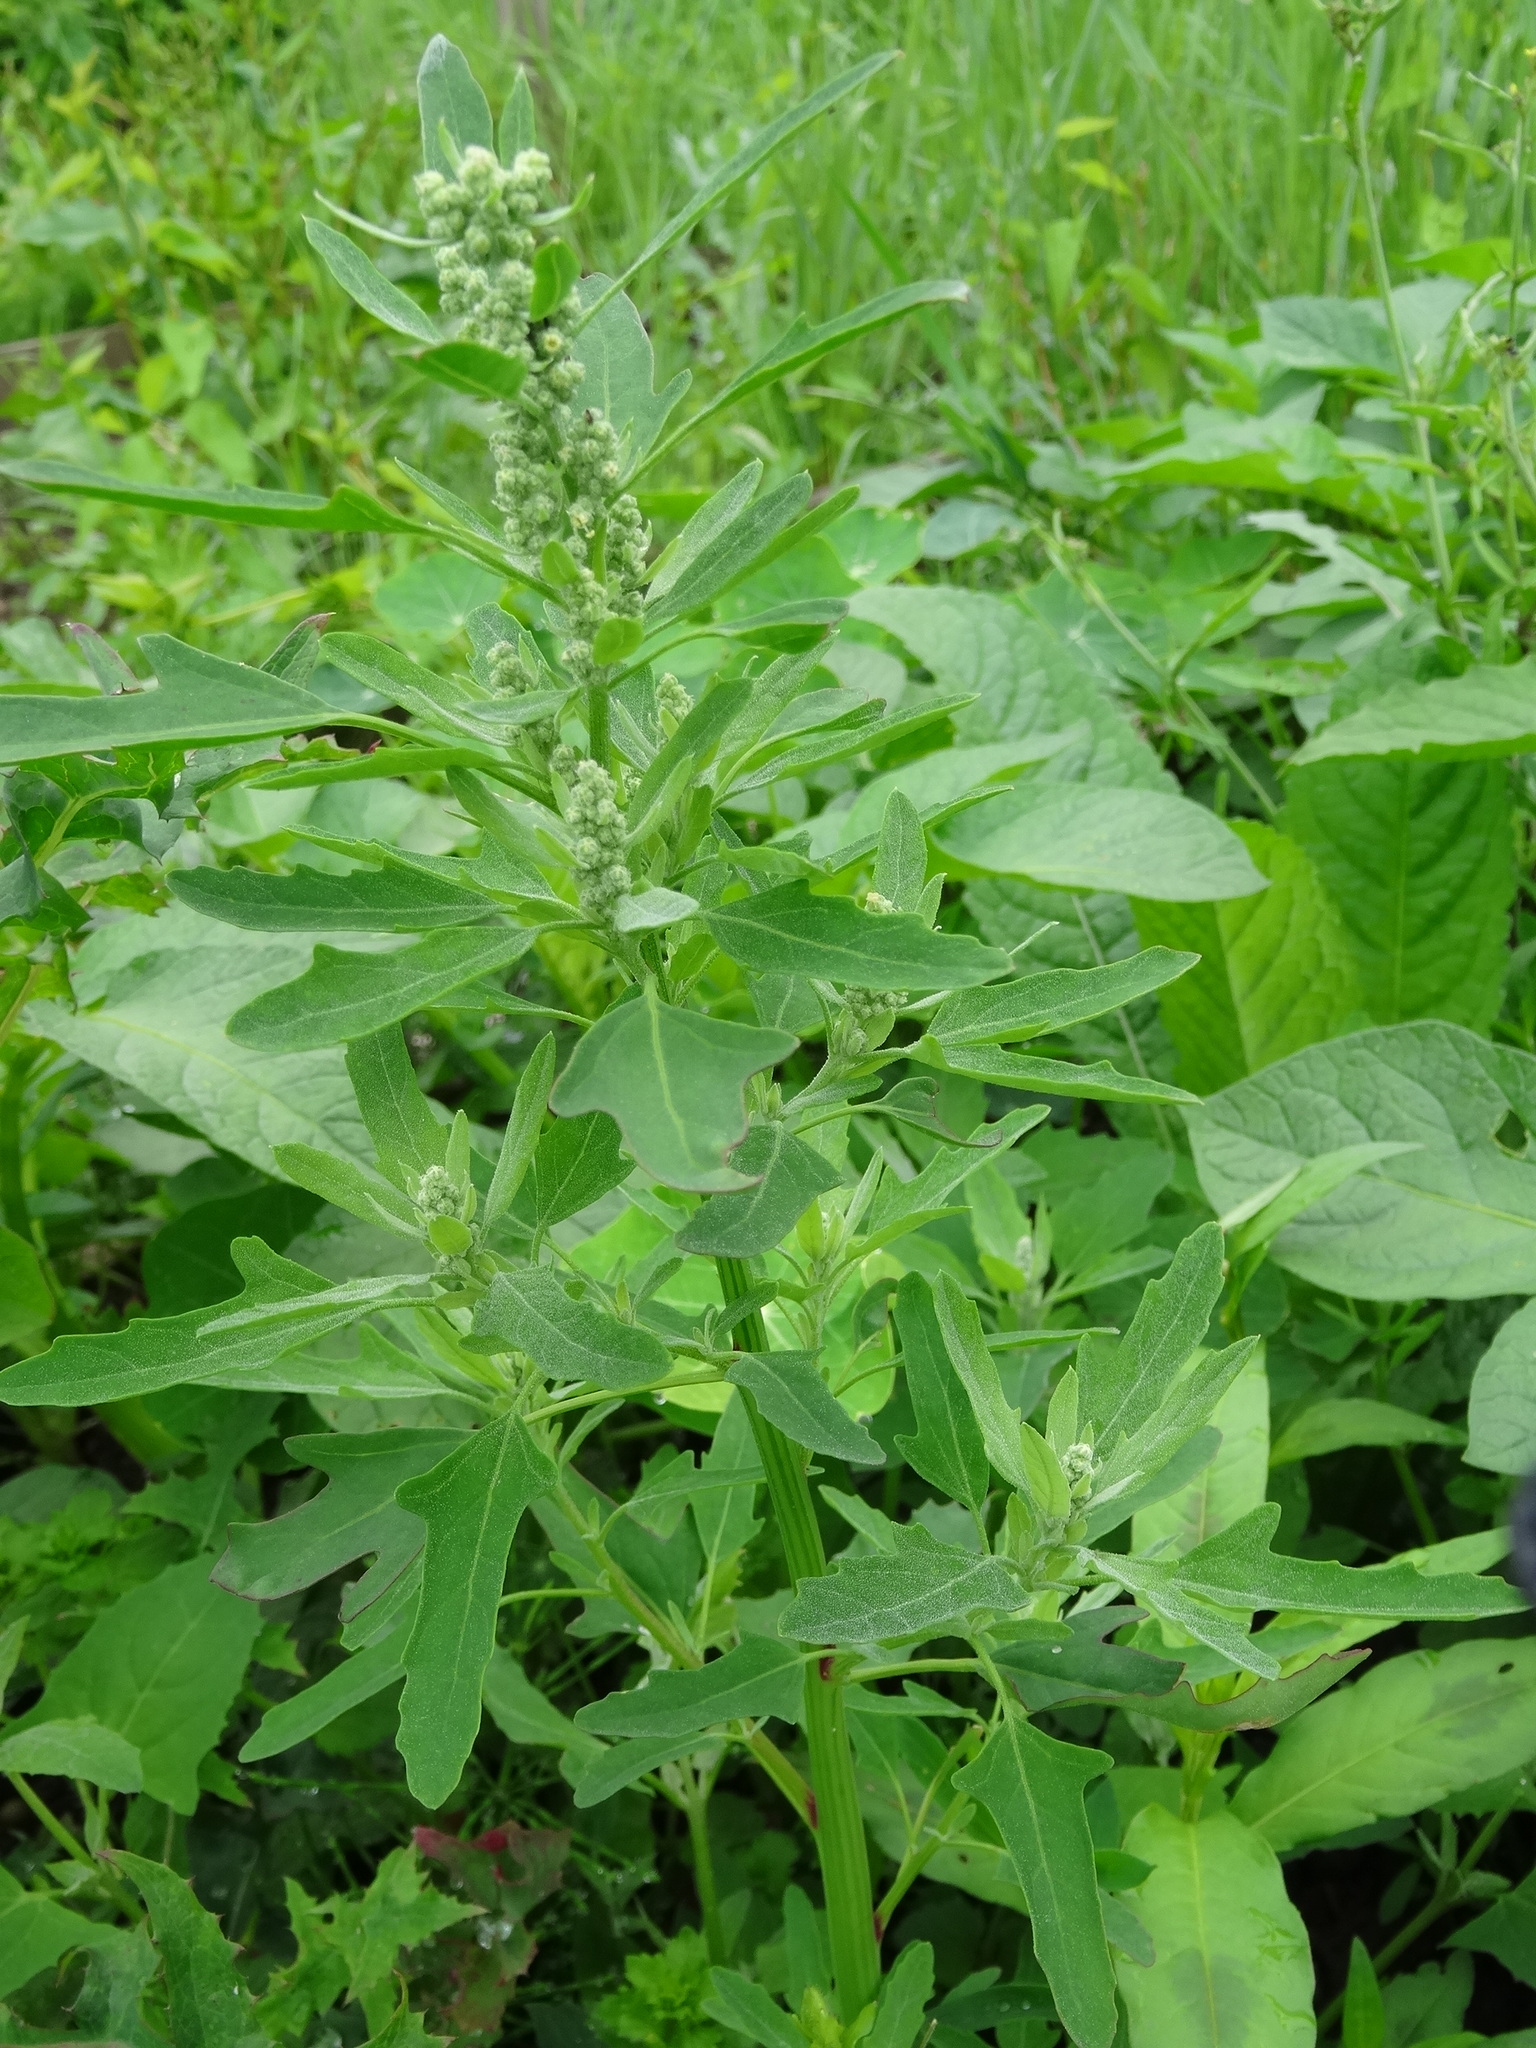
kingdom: Plantae
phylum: Tracheophyta
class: Magnoliopsida
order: Caryophyllales
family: Amaranthaceae
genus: Chenopodium
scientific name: Chenopodium ficifolium
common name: Fig-leaved goosefoot
